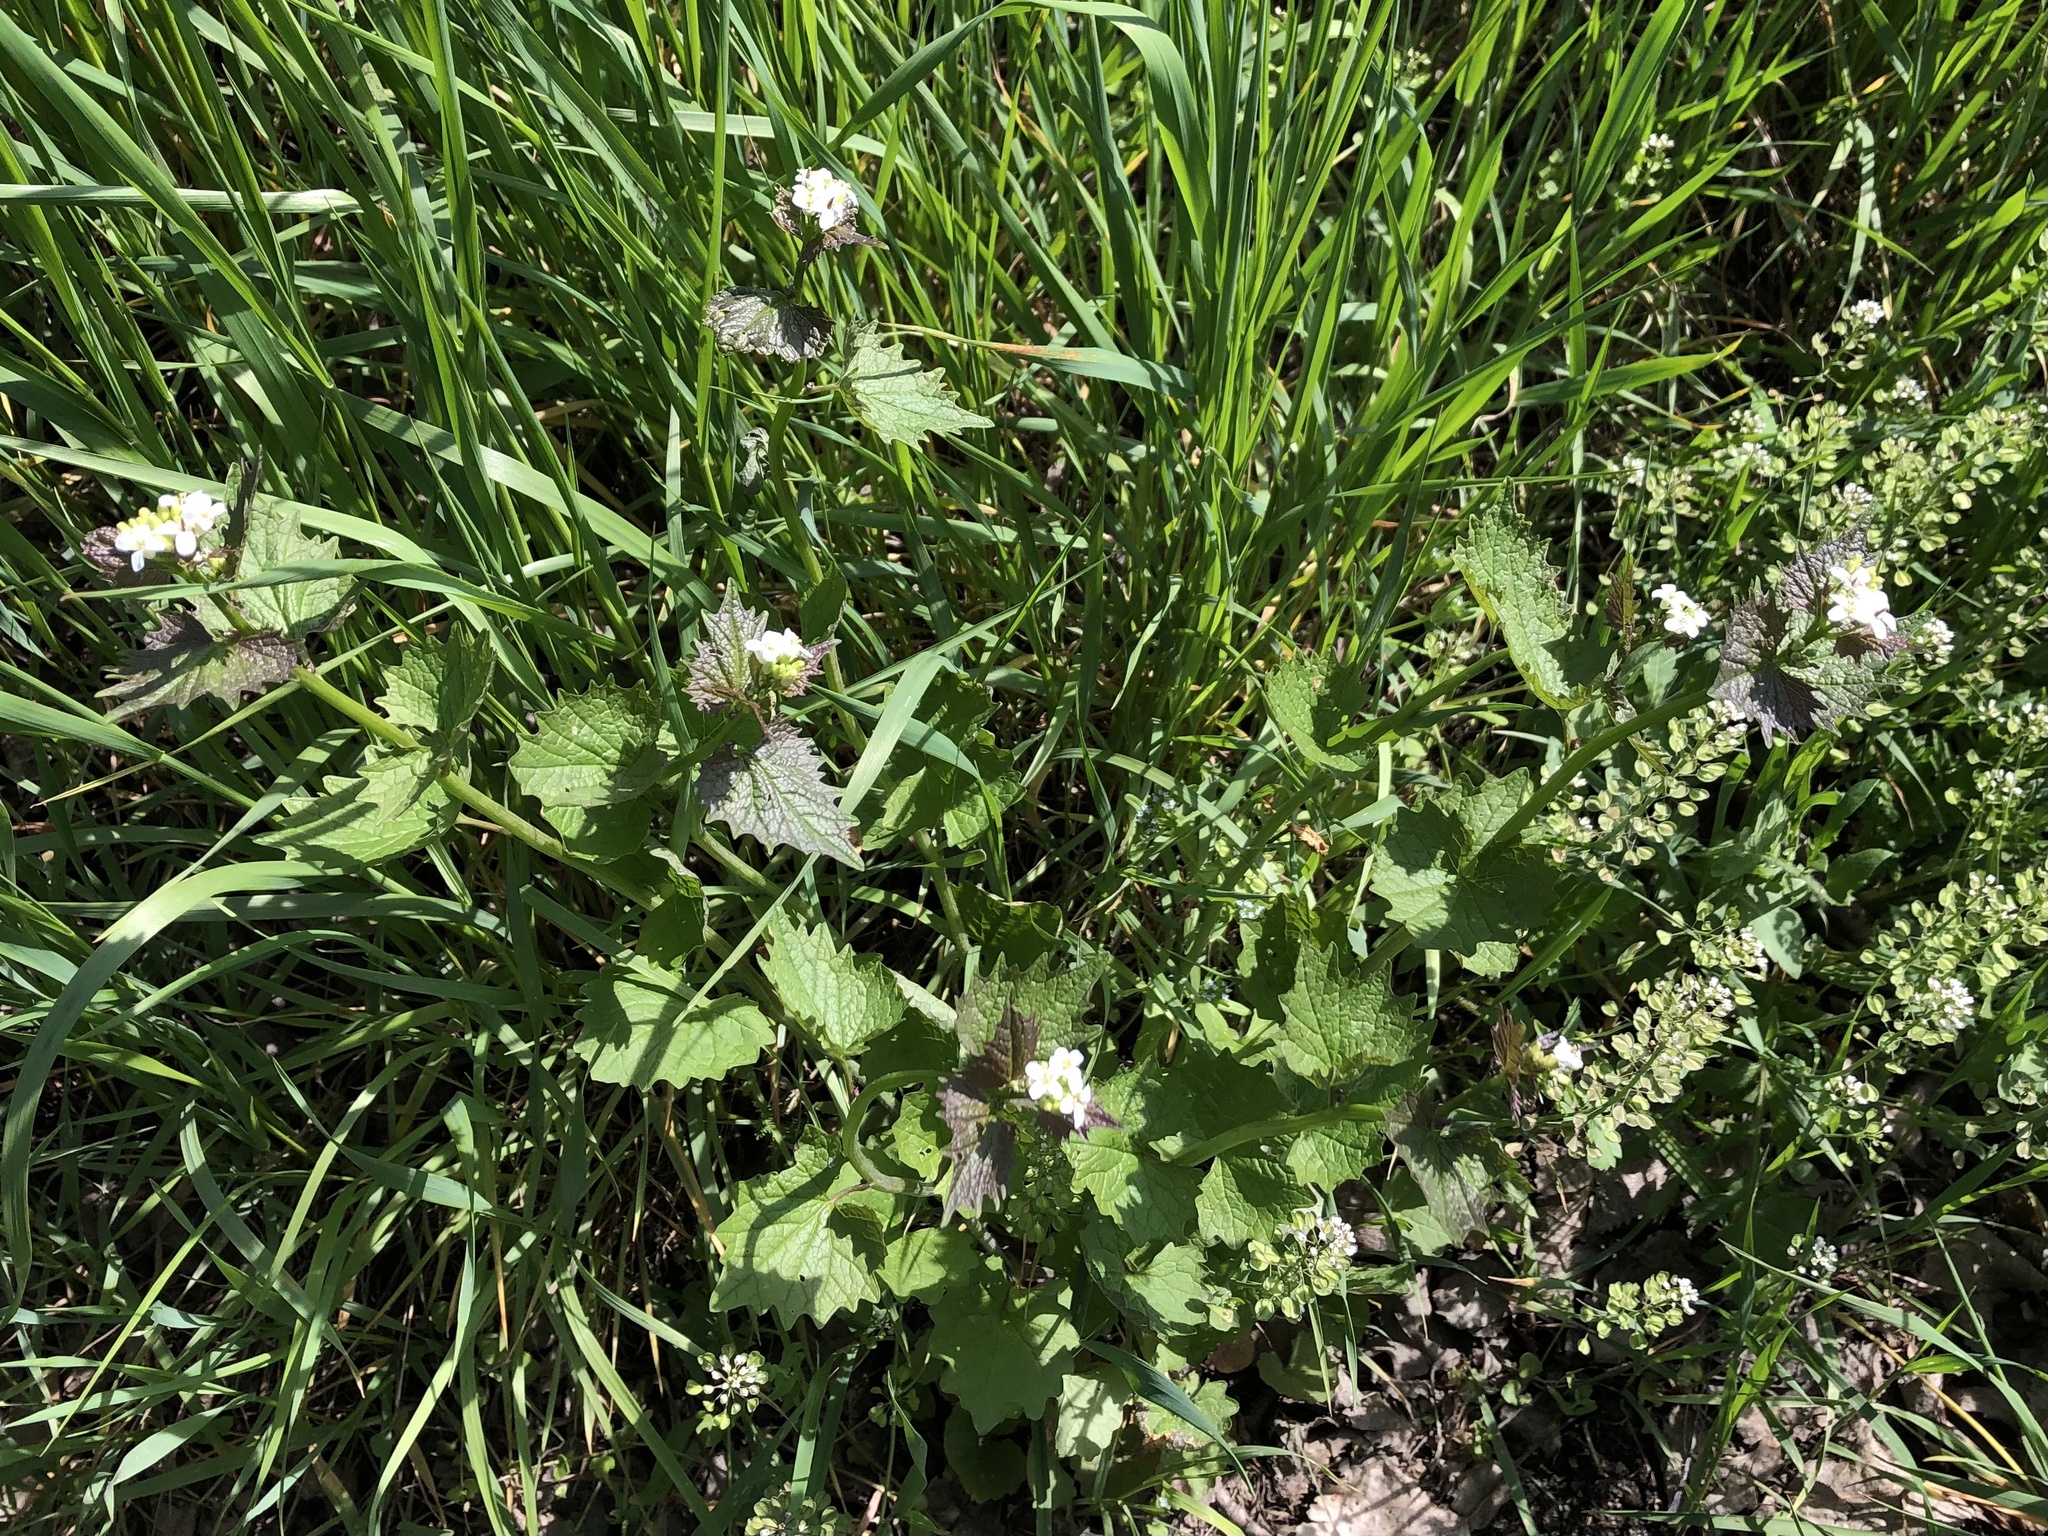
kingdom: Plantae
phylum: Tracheophyta
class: Magnoliopsida
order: Brassicales
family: Brassicaceae
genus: Alliaria
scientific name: Alliaria petiolata
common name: Garlic mustard
